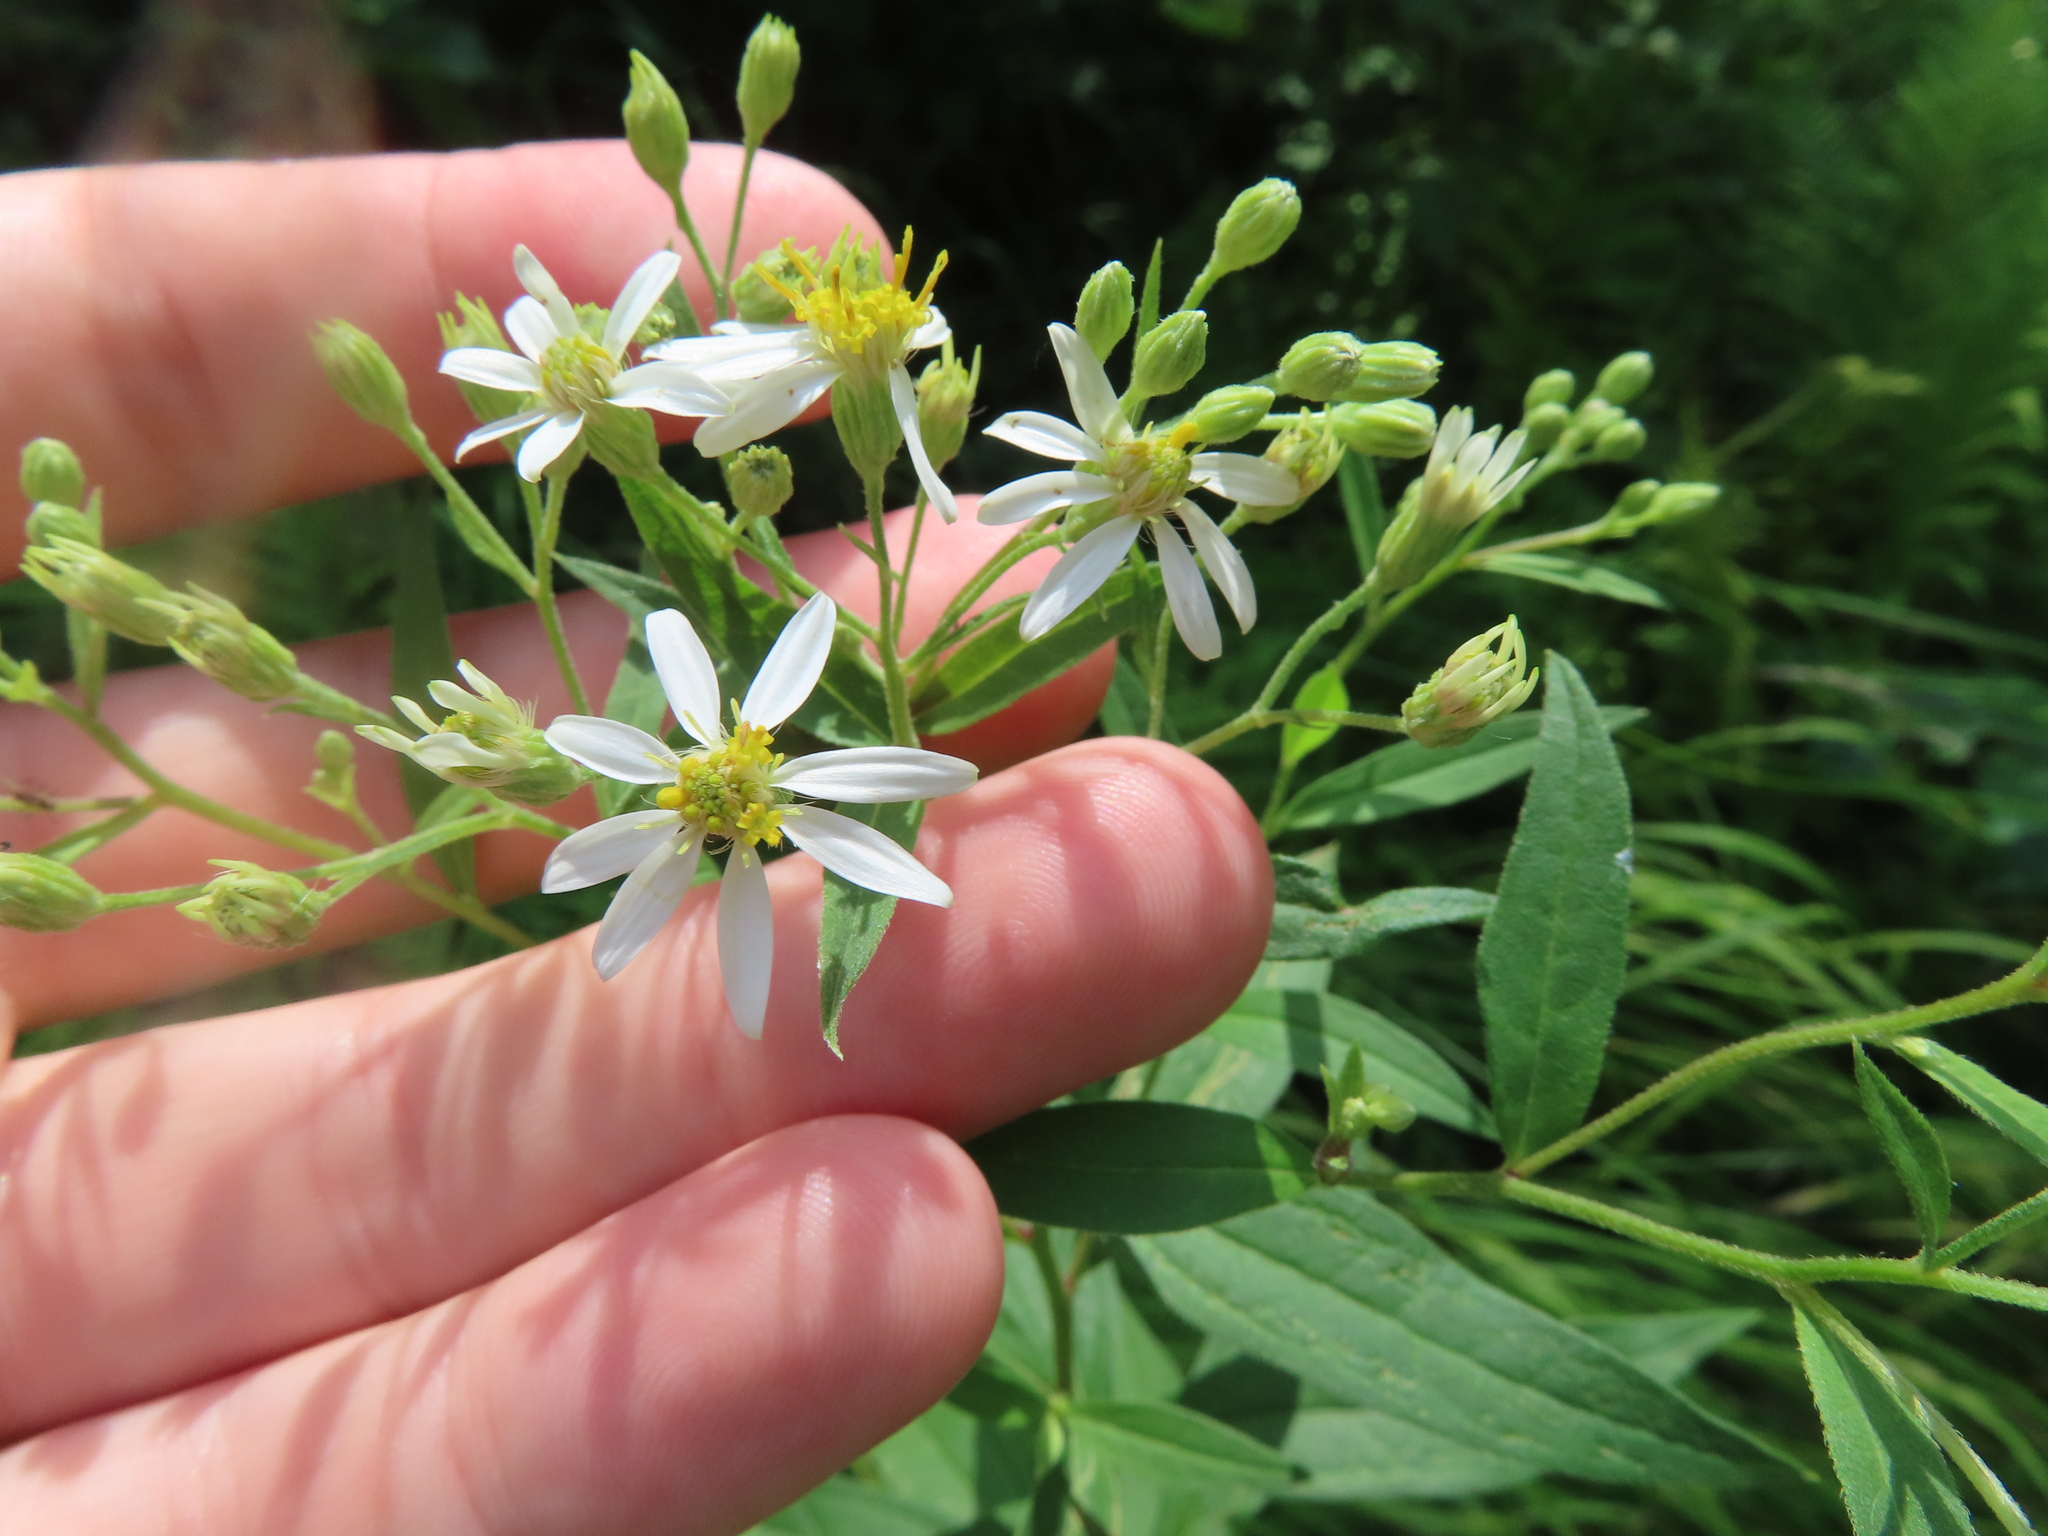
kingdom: Plantae
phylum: Tracheophyta
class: Magnoliopsida
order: Asterales
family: Asteraceae
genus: Doellingeria
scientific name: Doellingeria umbellata
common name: Flat-top white aster
